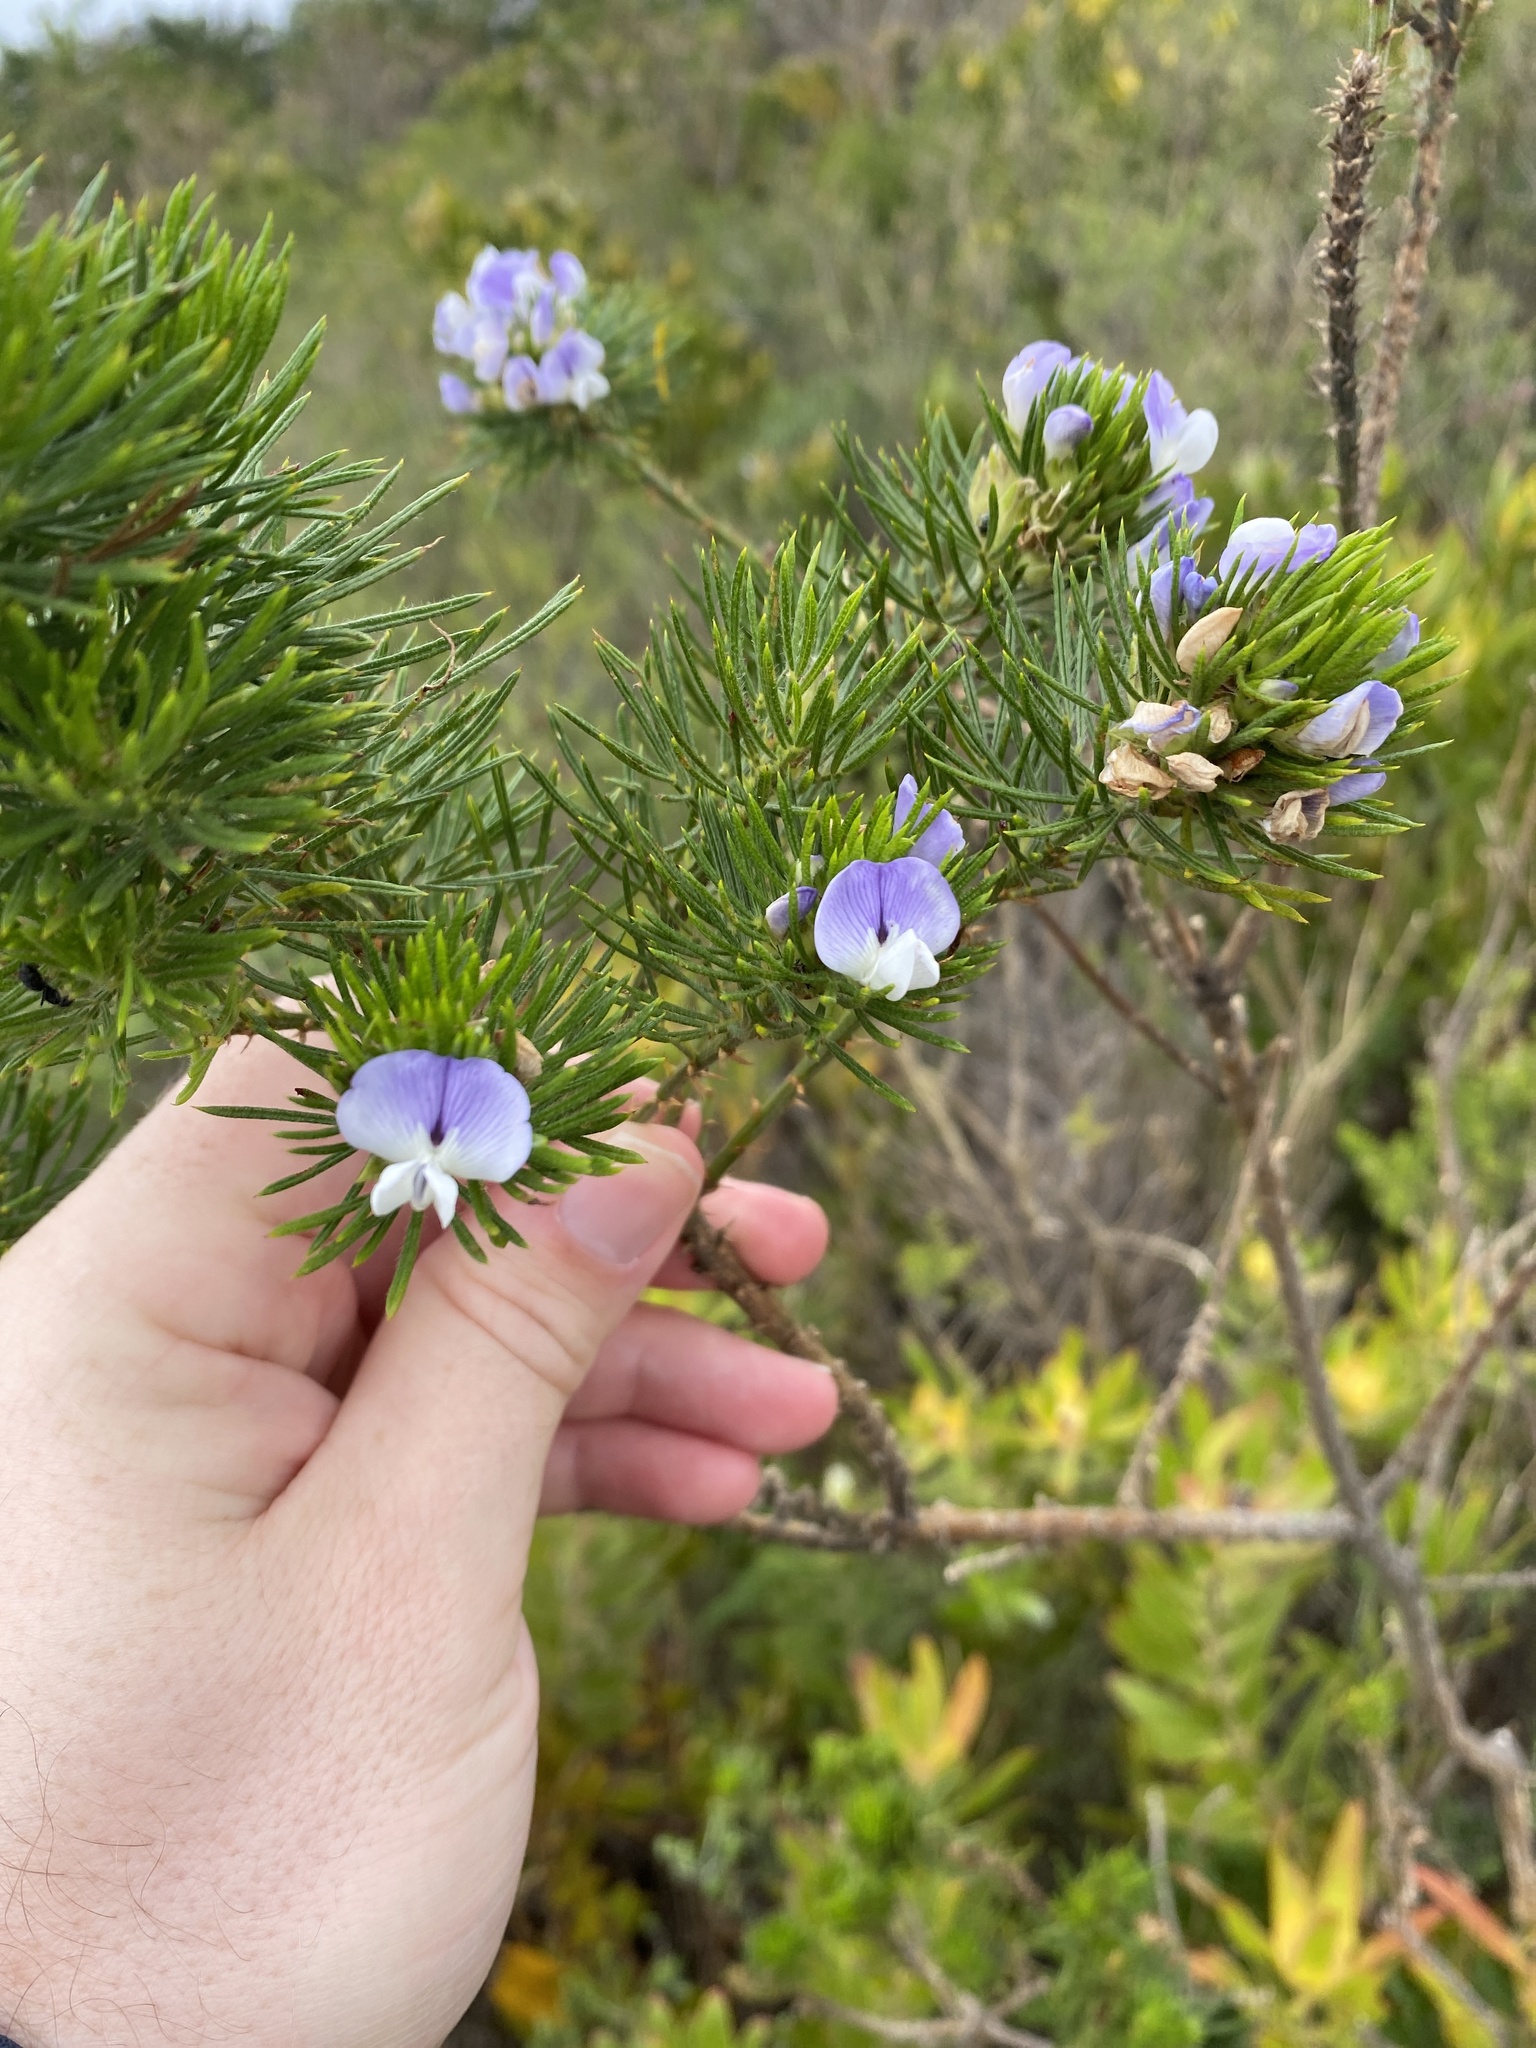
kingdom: Plantae
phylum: Tracheophyta
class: Magnoliopsida
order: Fabales
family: Fabaceae
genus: Psoralea
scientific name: Psoralea pinnata
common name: African scurfpea
